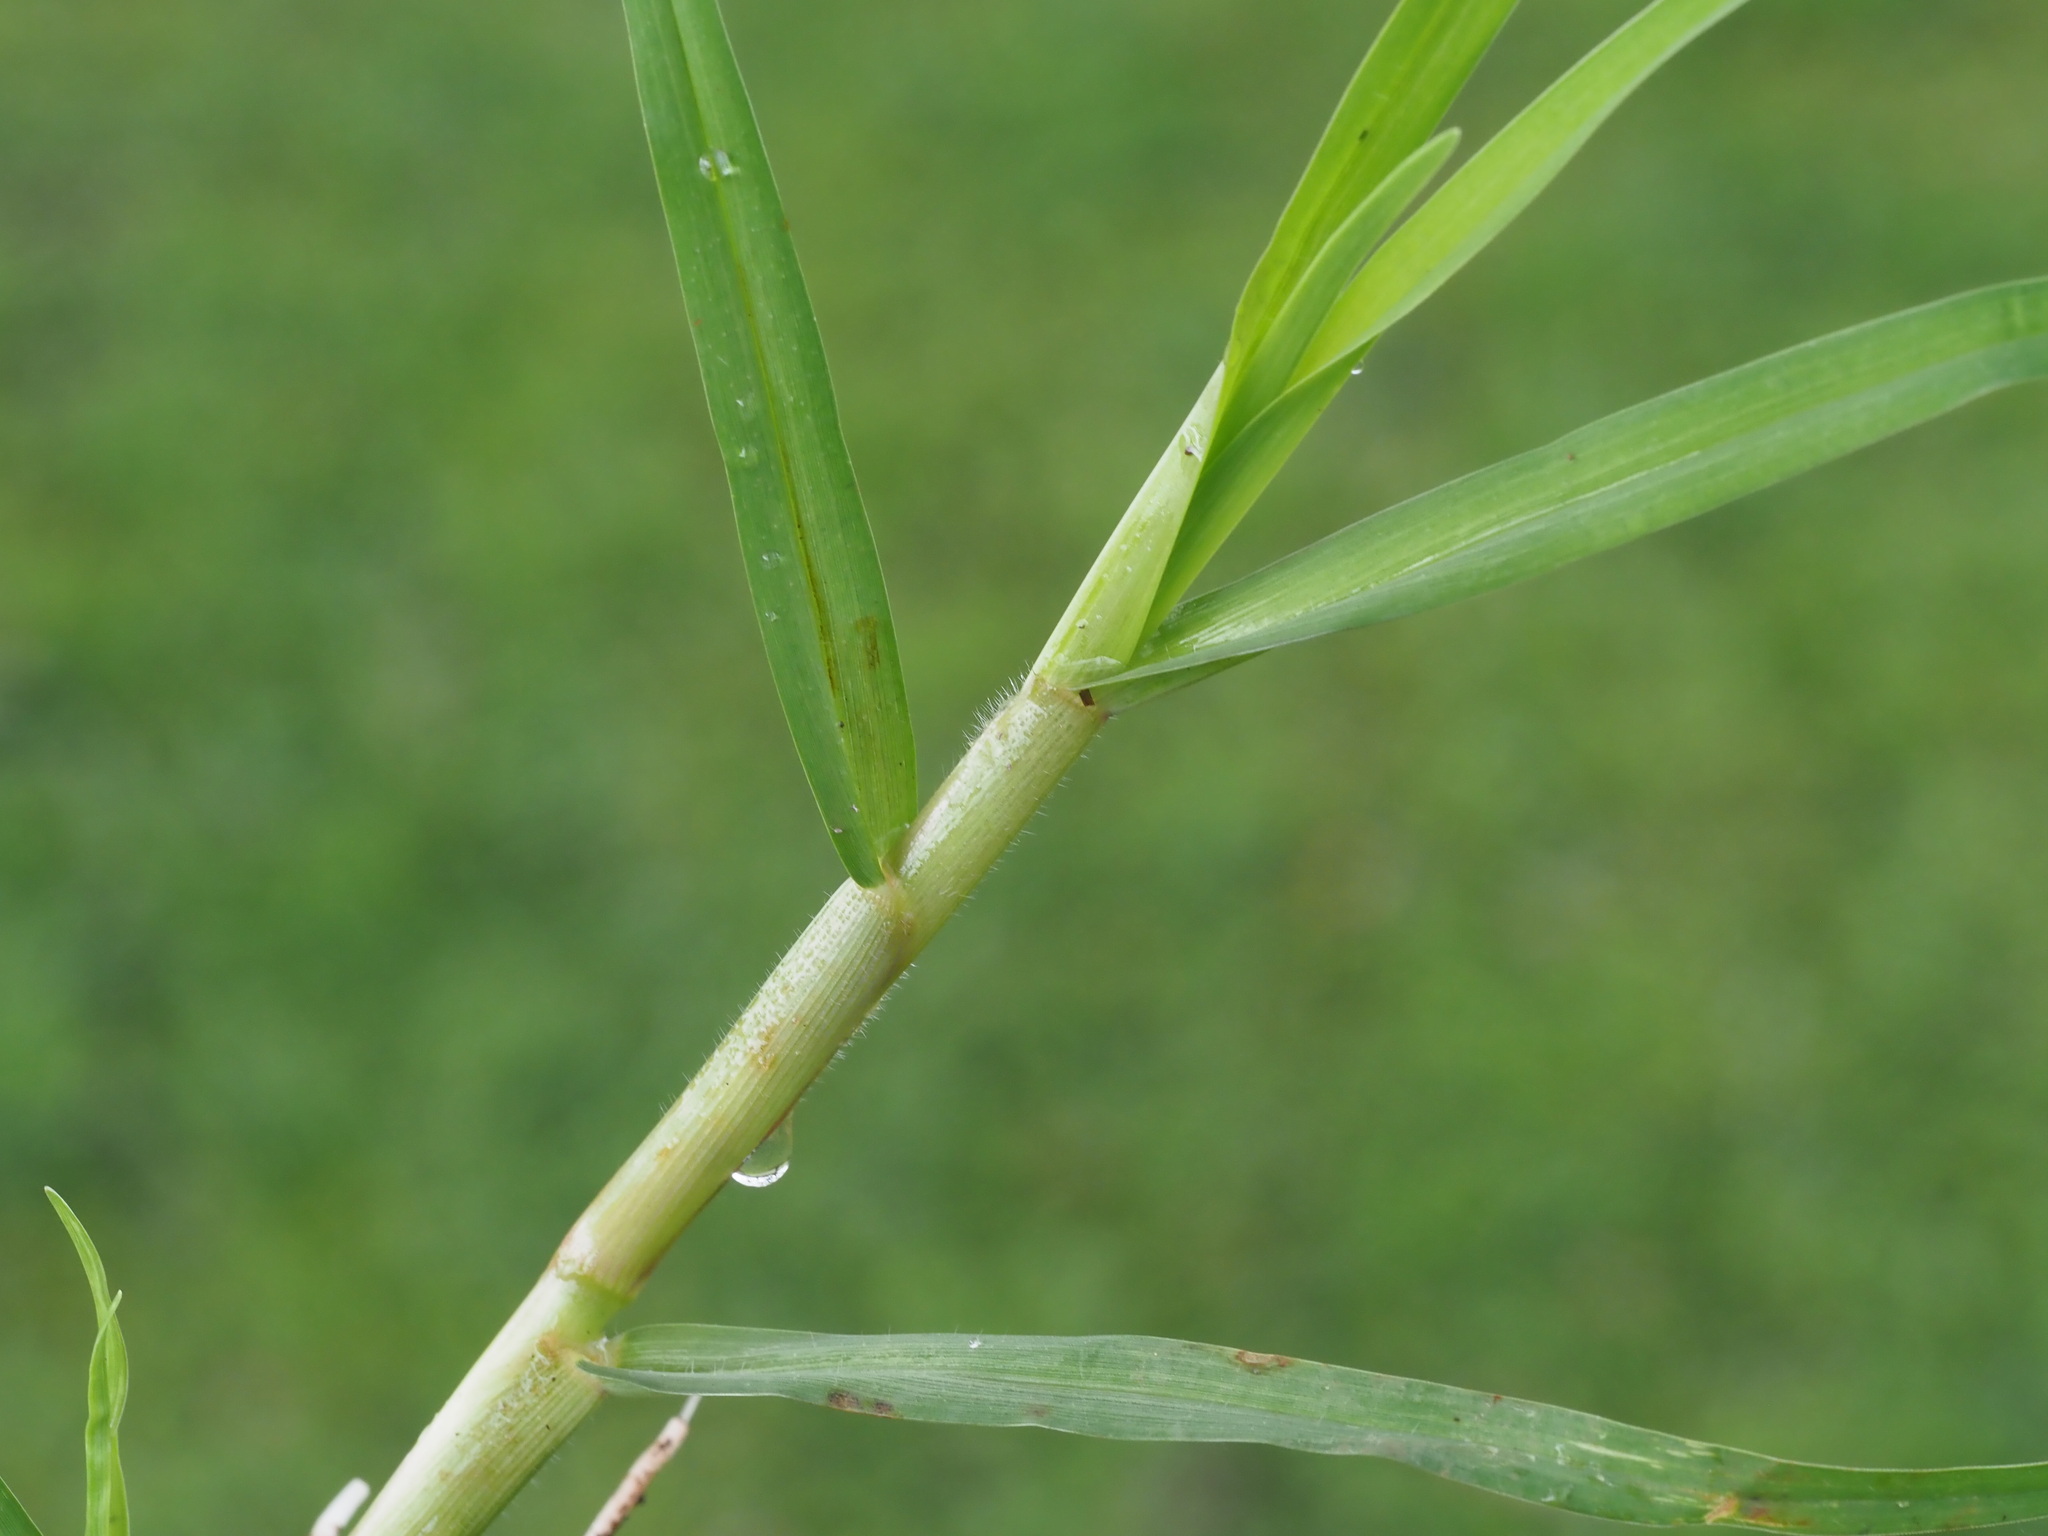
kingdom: Plantae
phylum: Tracheophyta
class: Liliopsida
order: Poales
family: Poaceae
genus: Cenchrus
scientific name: Cenchrus clandestinus
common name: Kikuyugrass
